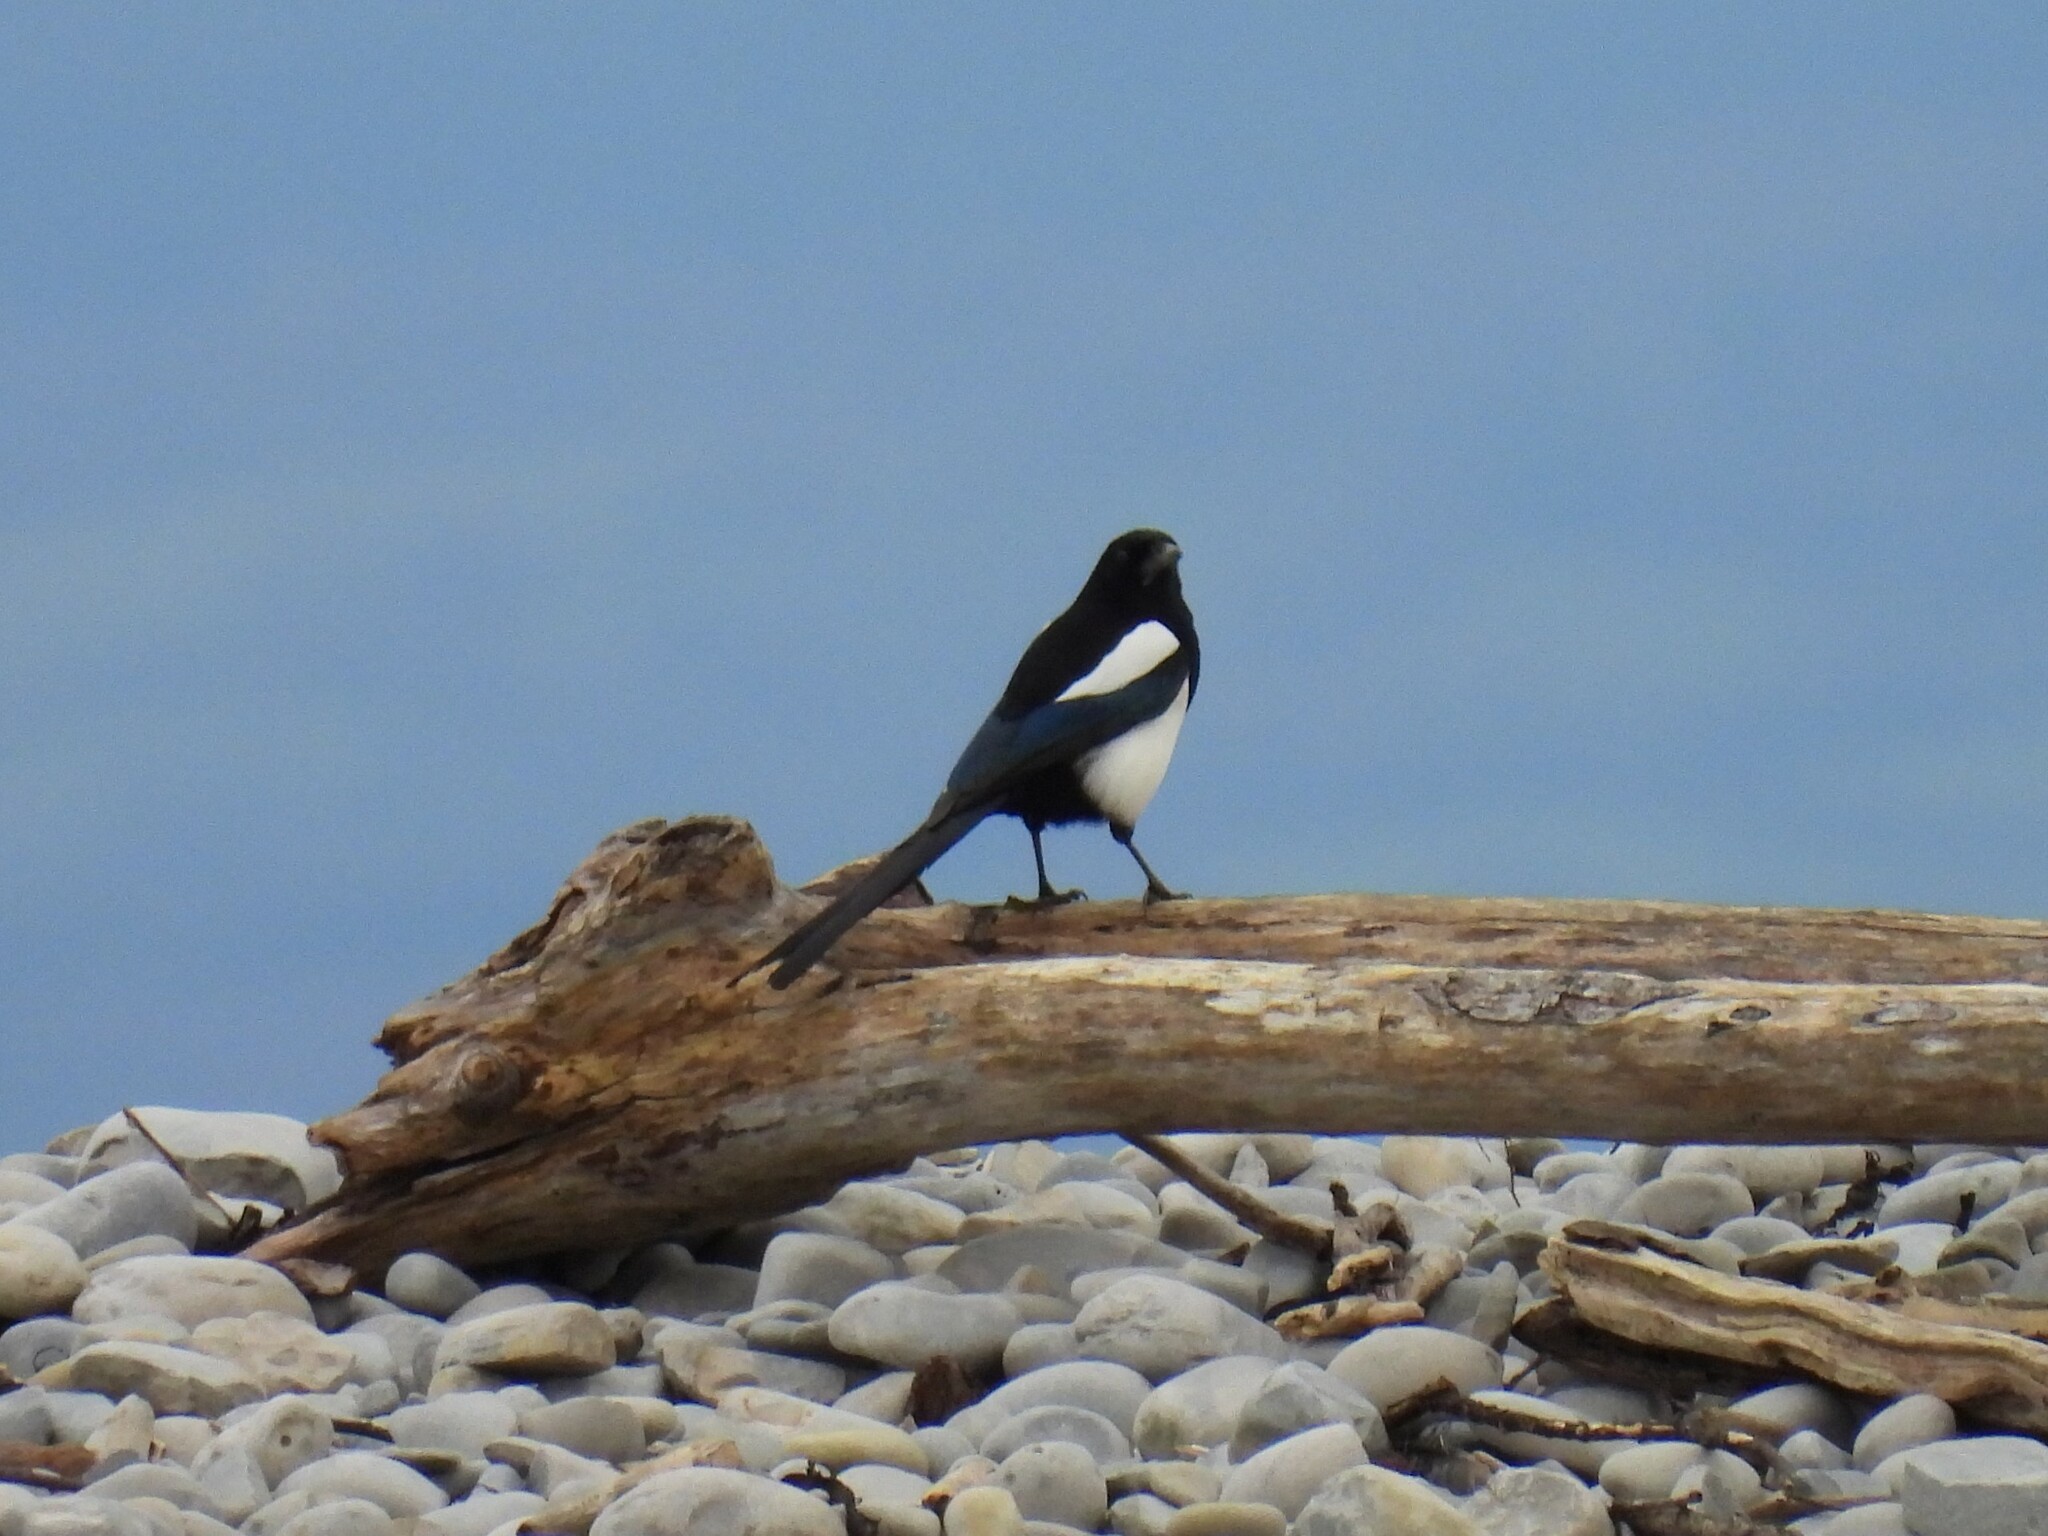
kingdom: Animalia
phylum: Chordata
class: Aves
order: Passeriformes
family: Corvidae
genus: Pica
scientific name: Pica pica
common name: Eurasian magpie
